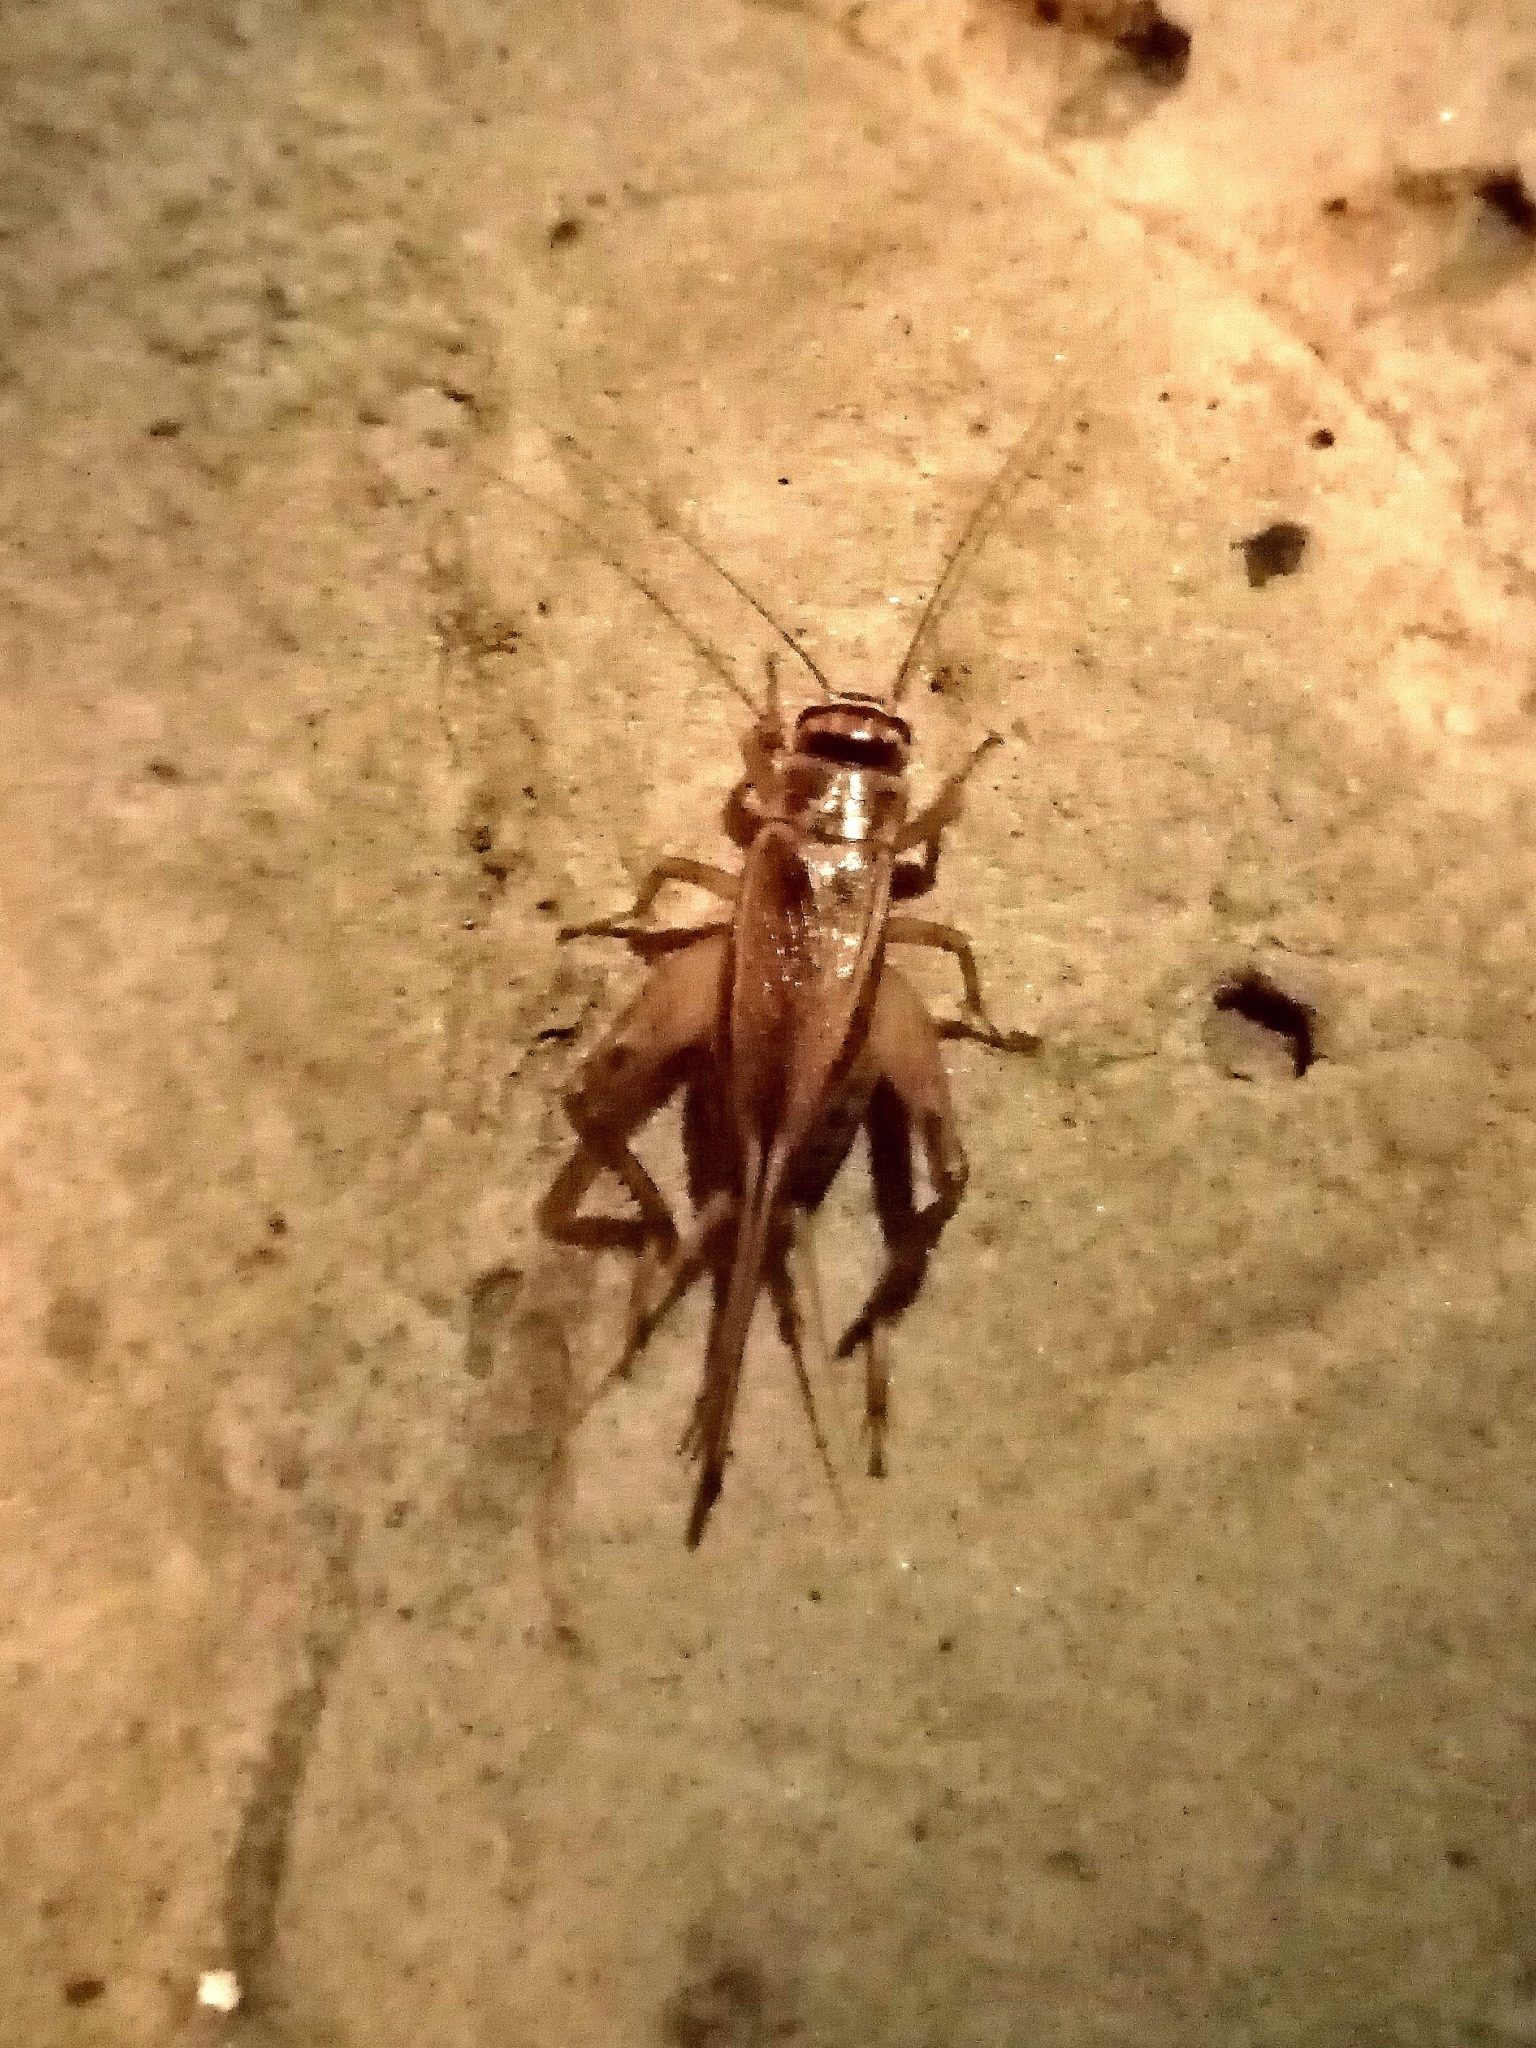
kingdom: Animalia
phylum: Arthropoda
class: Insecta
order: Orthoptera
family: Gryllidae
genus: Acheta
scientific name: Acheta domesticus
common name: House cricket
